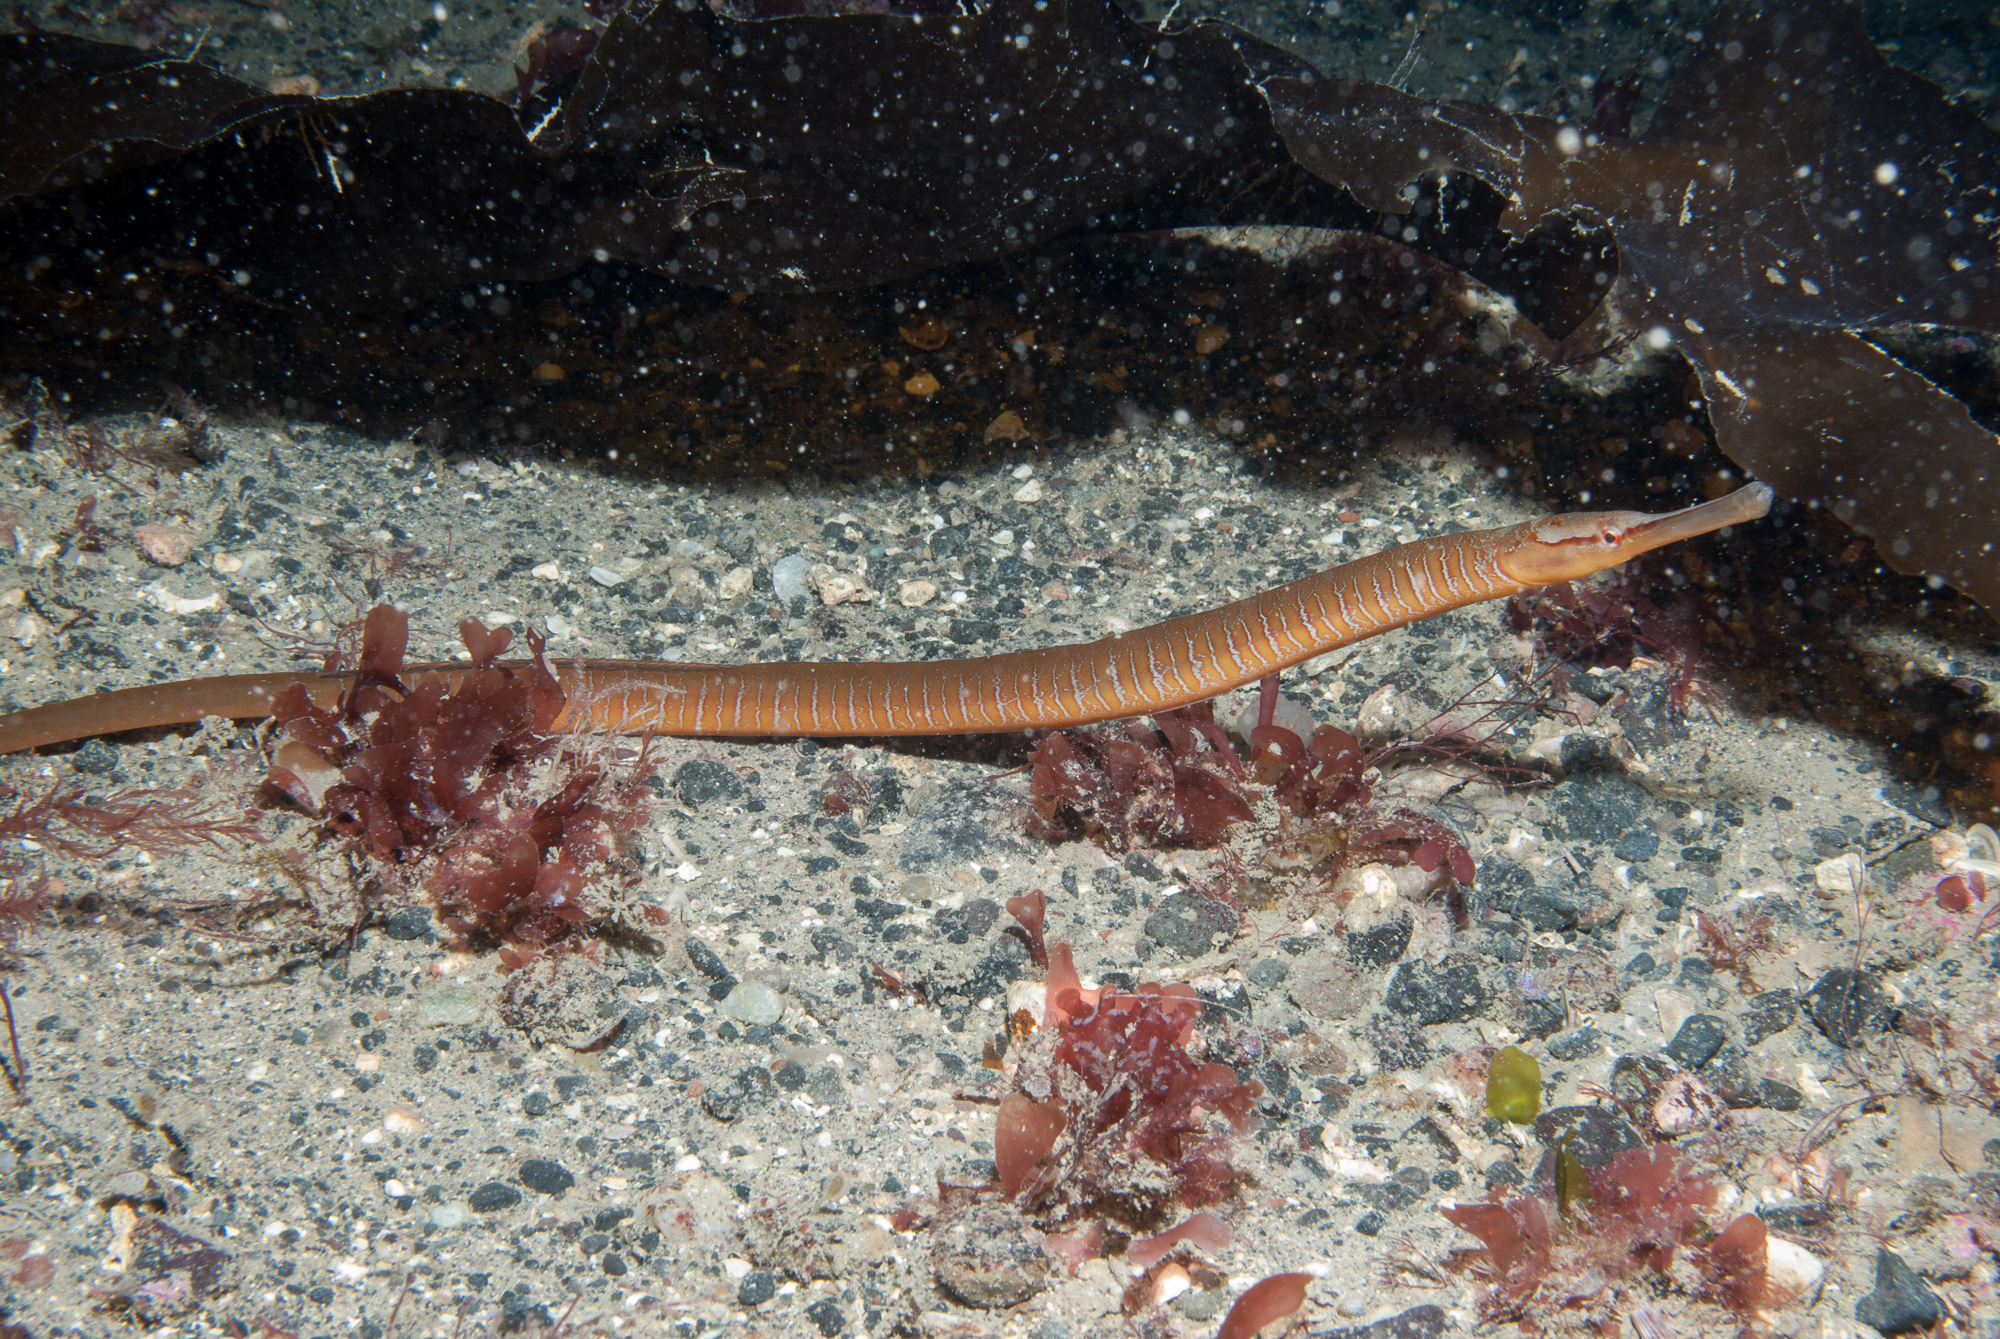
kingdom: Animalia
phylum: Chordata
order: Syngnathiformes
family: Syngnathidae
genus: Entelurus
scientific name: Entelurus aequoreus
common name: Snake pipefish
